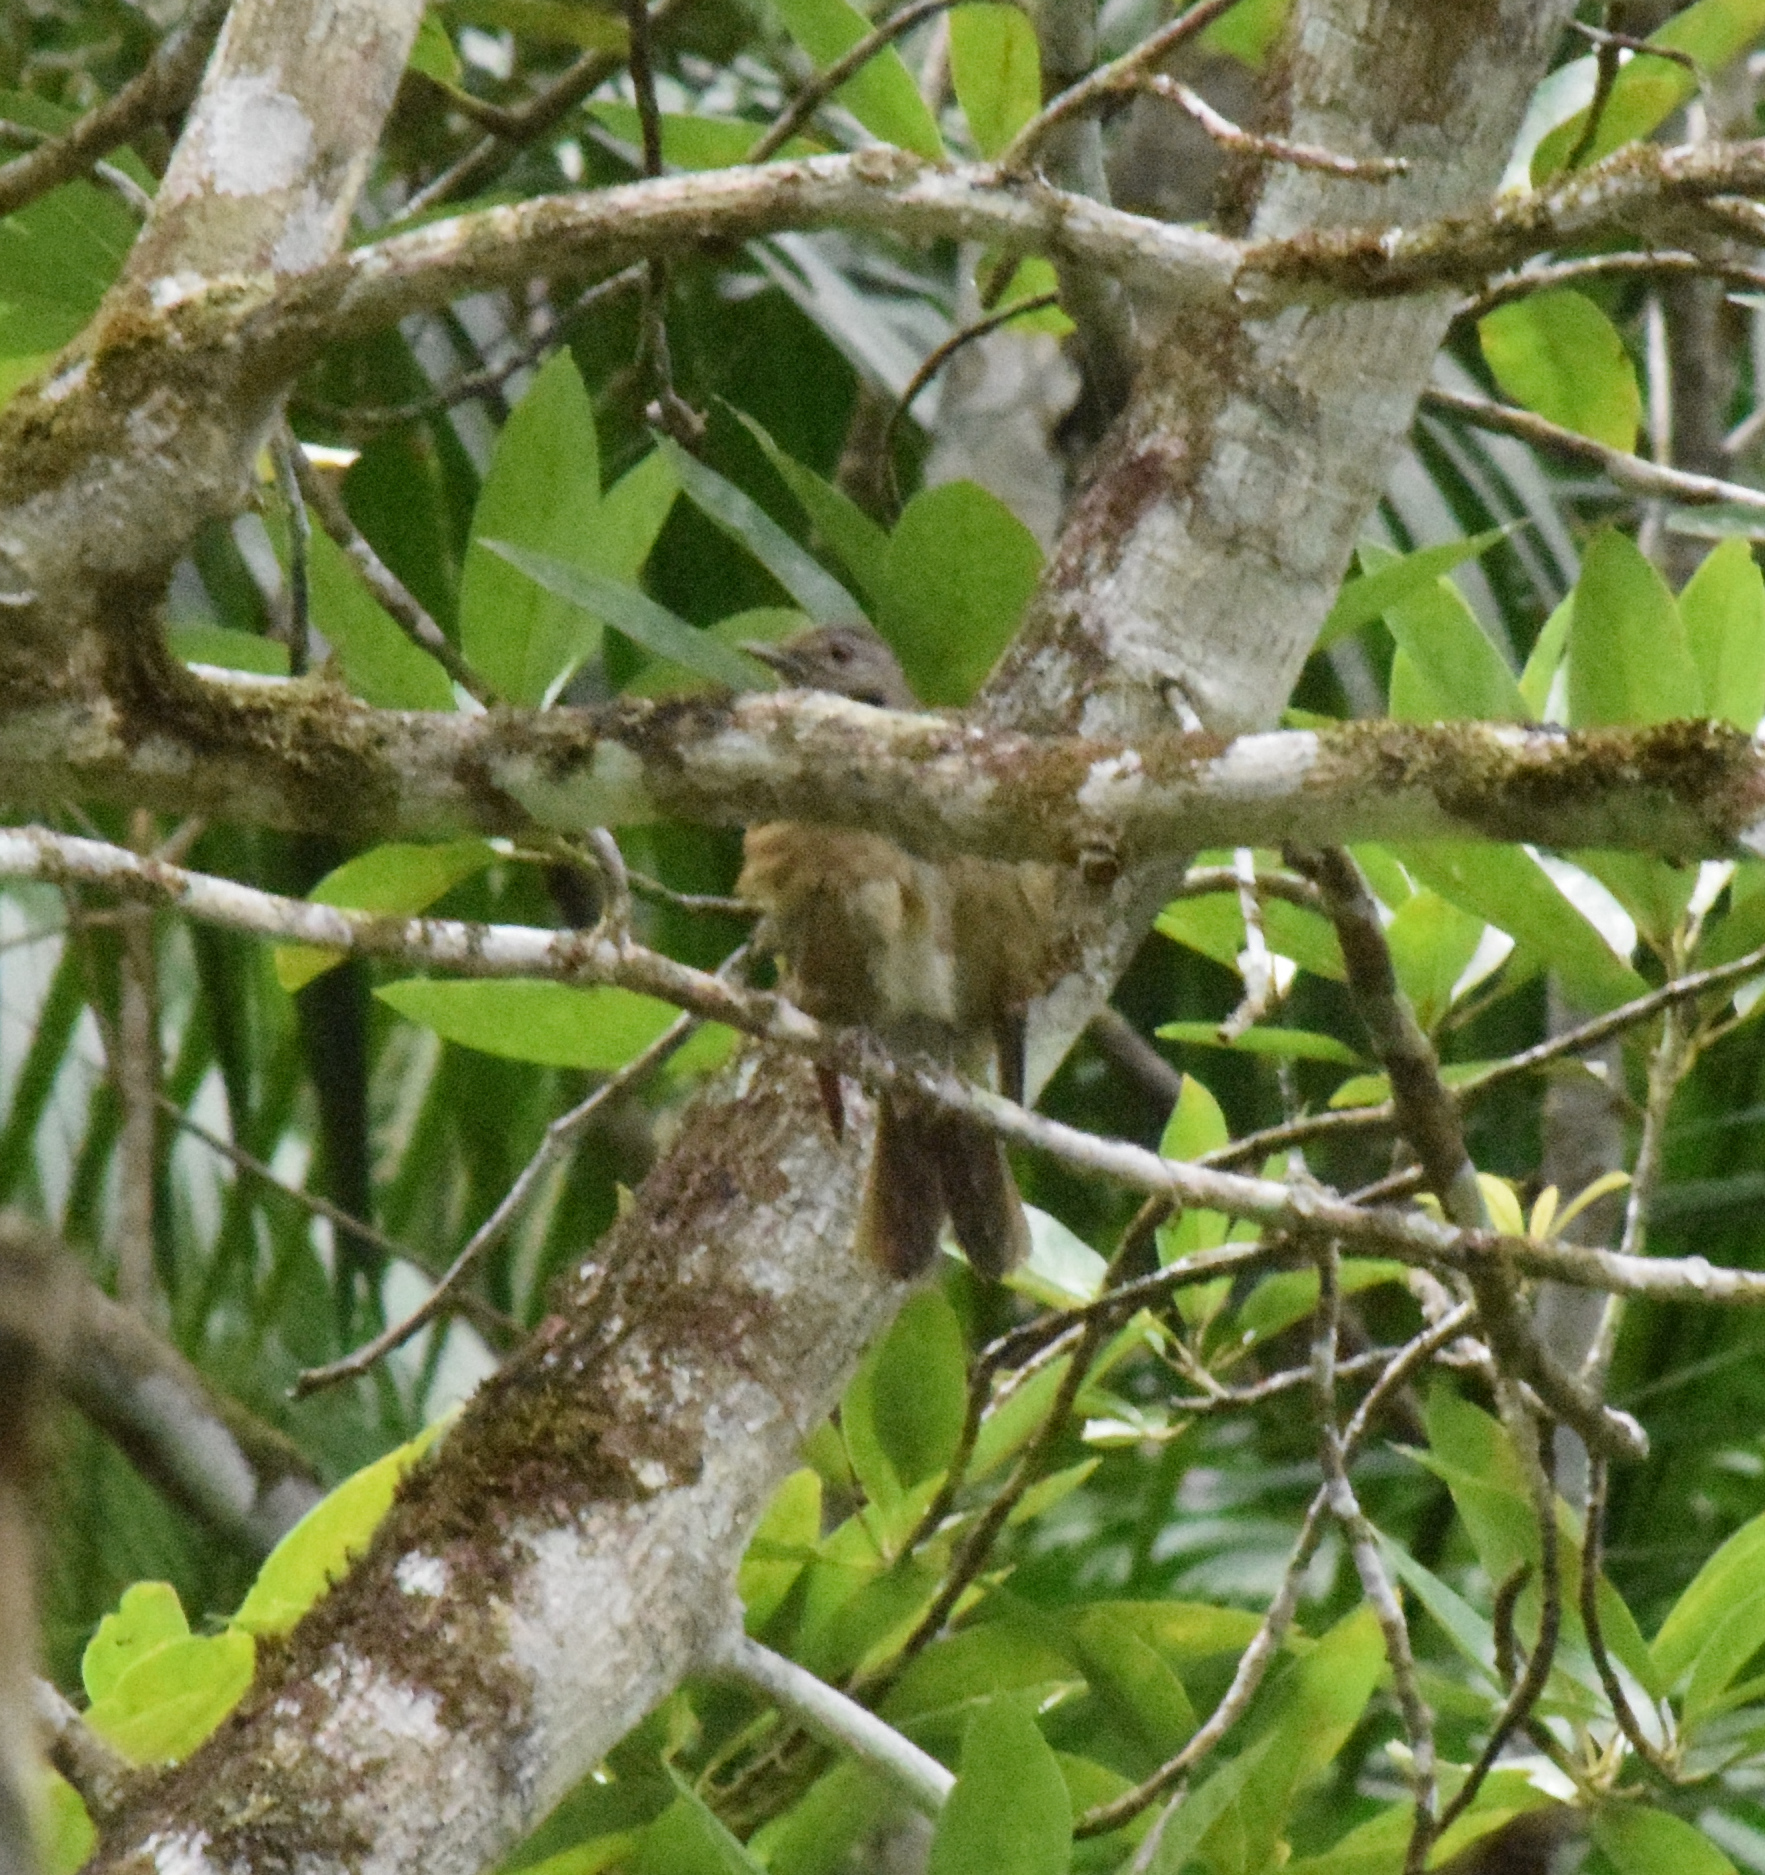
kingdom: Animalia
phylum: Chordata
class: Aves
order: Passeriformes
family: Turdidae
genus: Turdus
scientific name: Turdus leucomelas
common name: Pale-breasted thrush
